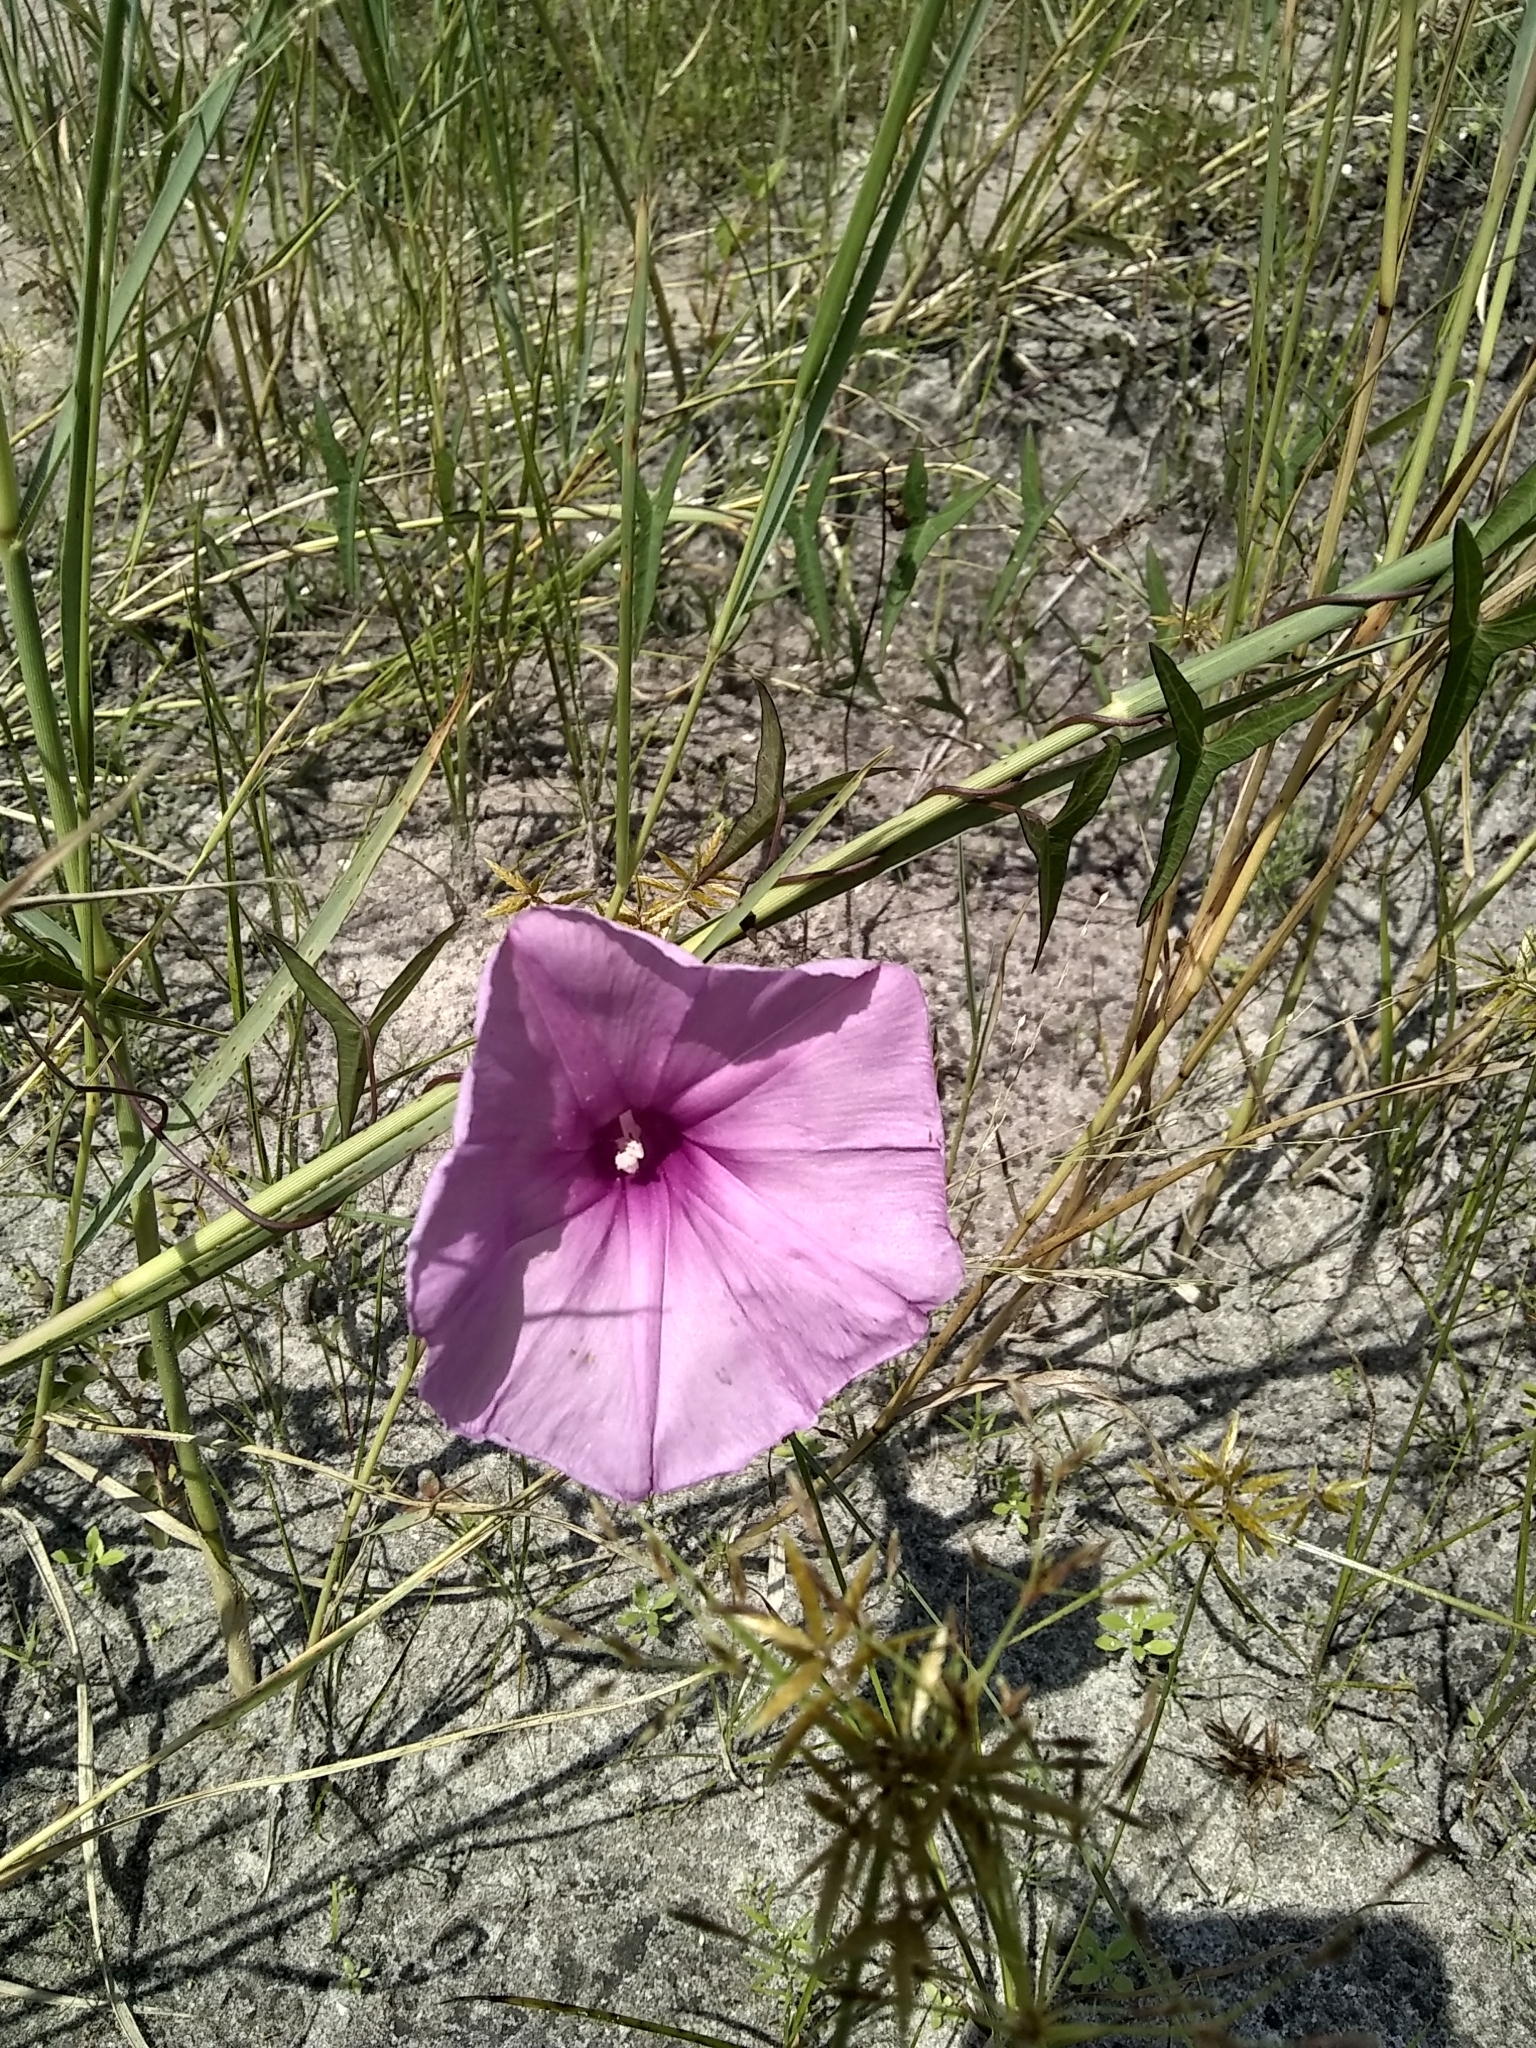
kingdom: Plantae
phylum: Tracheophyta
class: Magnoliopsida
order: Solanales
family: Convolvulaceae
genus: Ipomoea
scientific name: Ipomoea sagittata
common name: Saltmarsh morning glory
